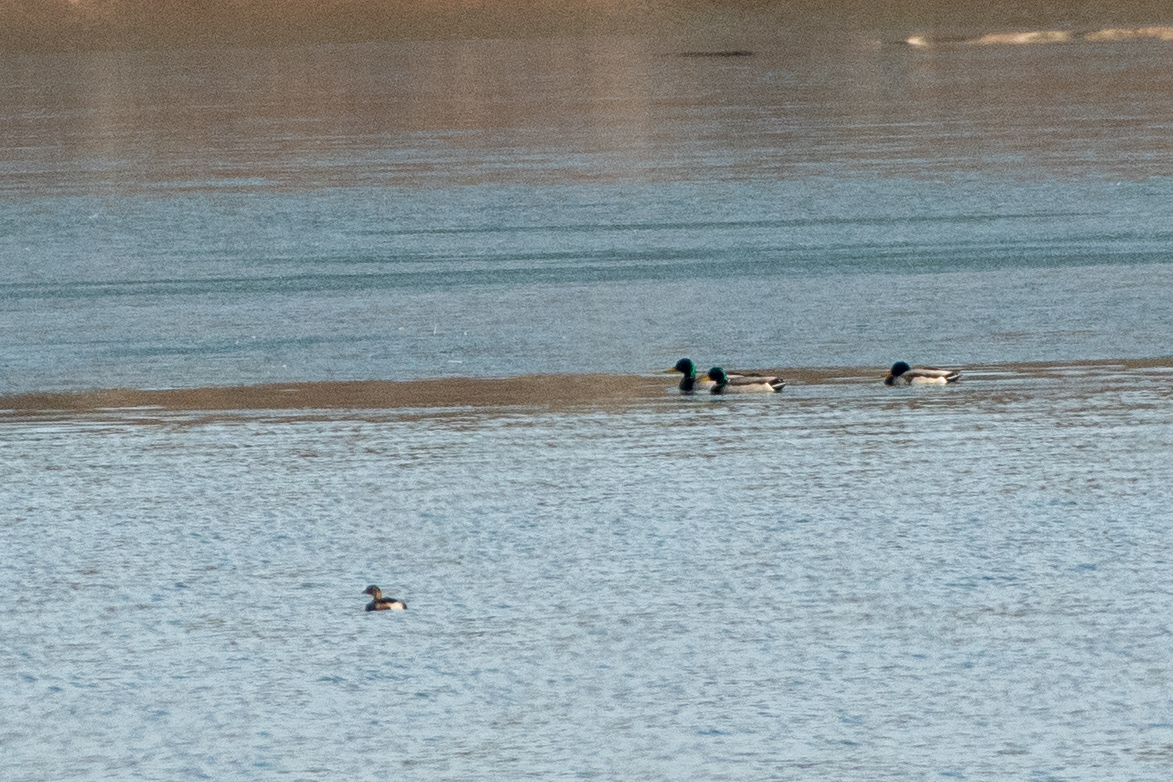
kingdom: Animalia
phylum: Chordata
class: Aves
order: Anseriformes
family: Anatidae
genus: Anas
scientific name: Anas platyrhynchos
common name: Mallard
